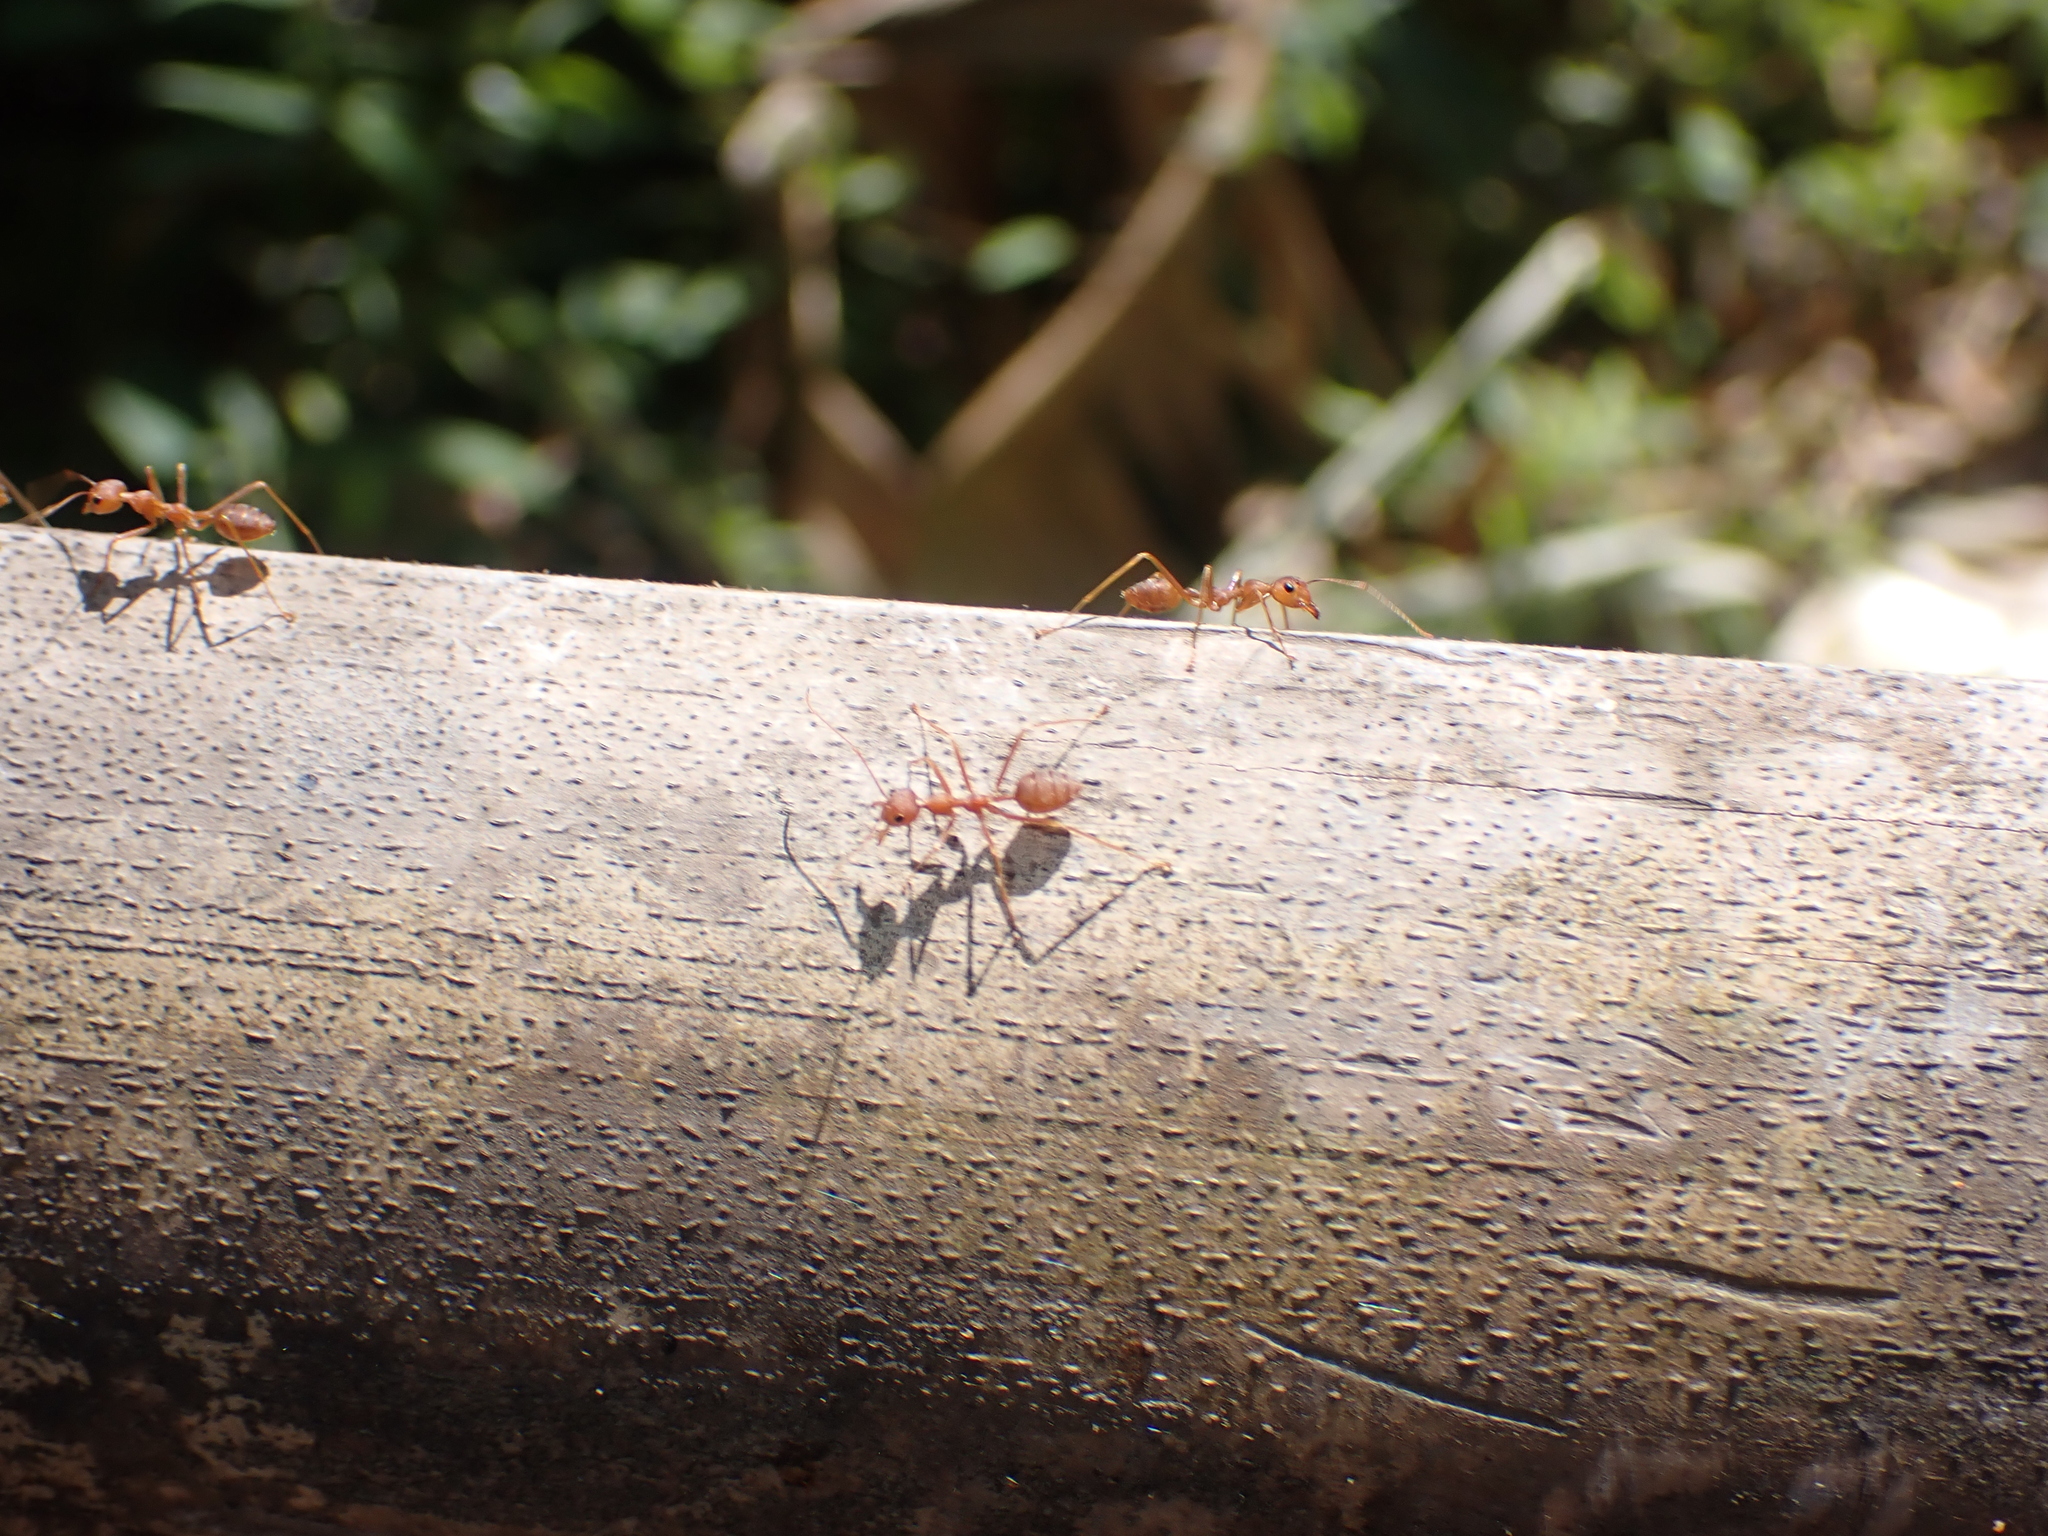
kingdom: Animalia
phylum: Arthropoda
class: Insecta
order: Hymenoptera
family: Formicidae
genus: Oecophylla
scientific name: Oecophylla smaragdina
